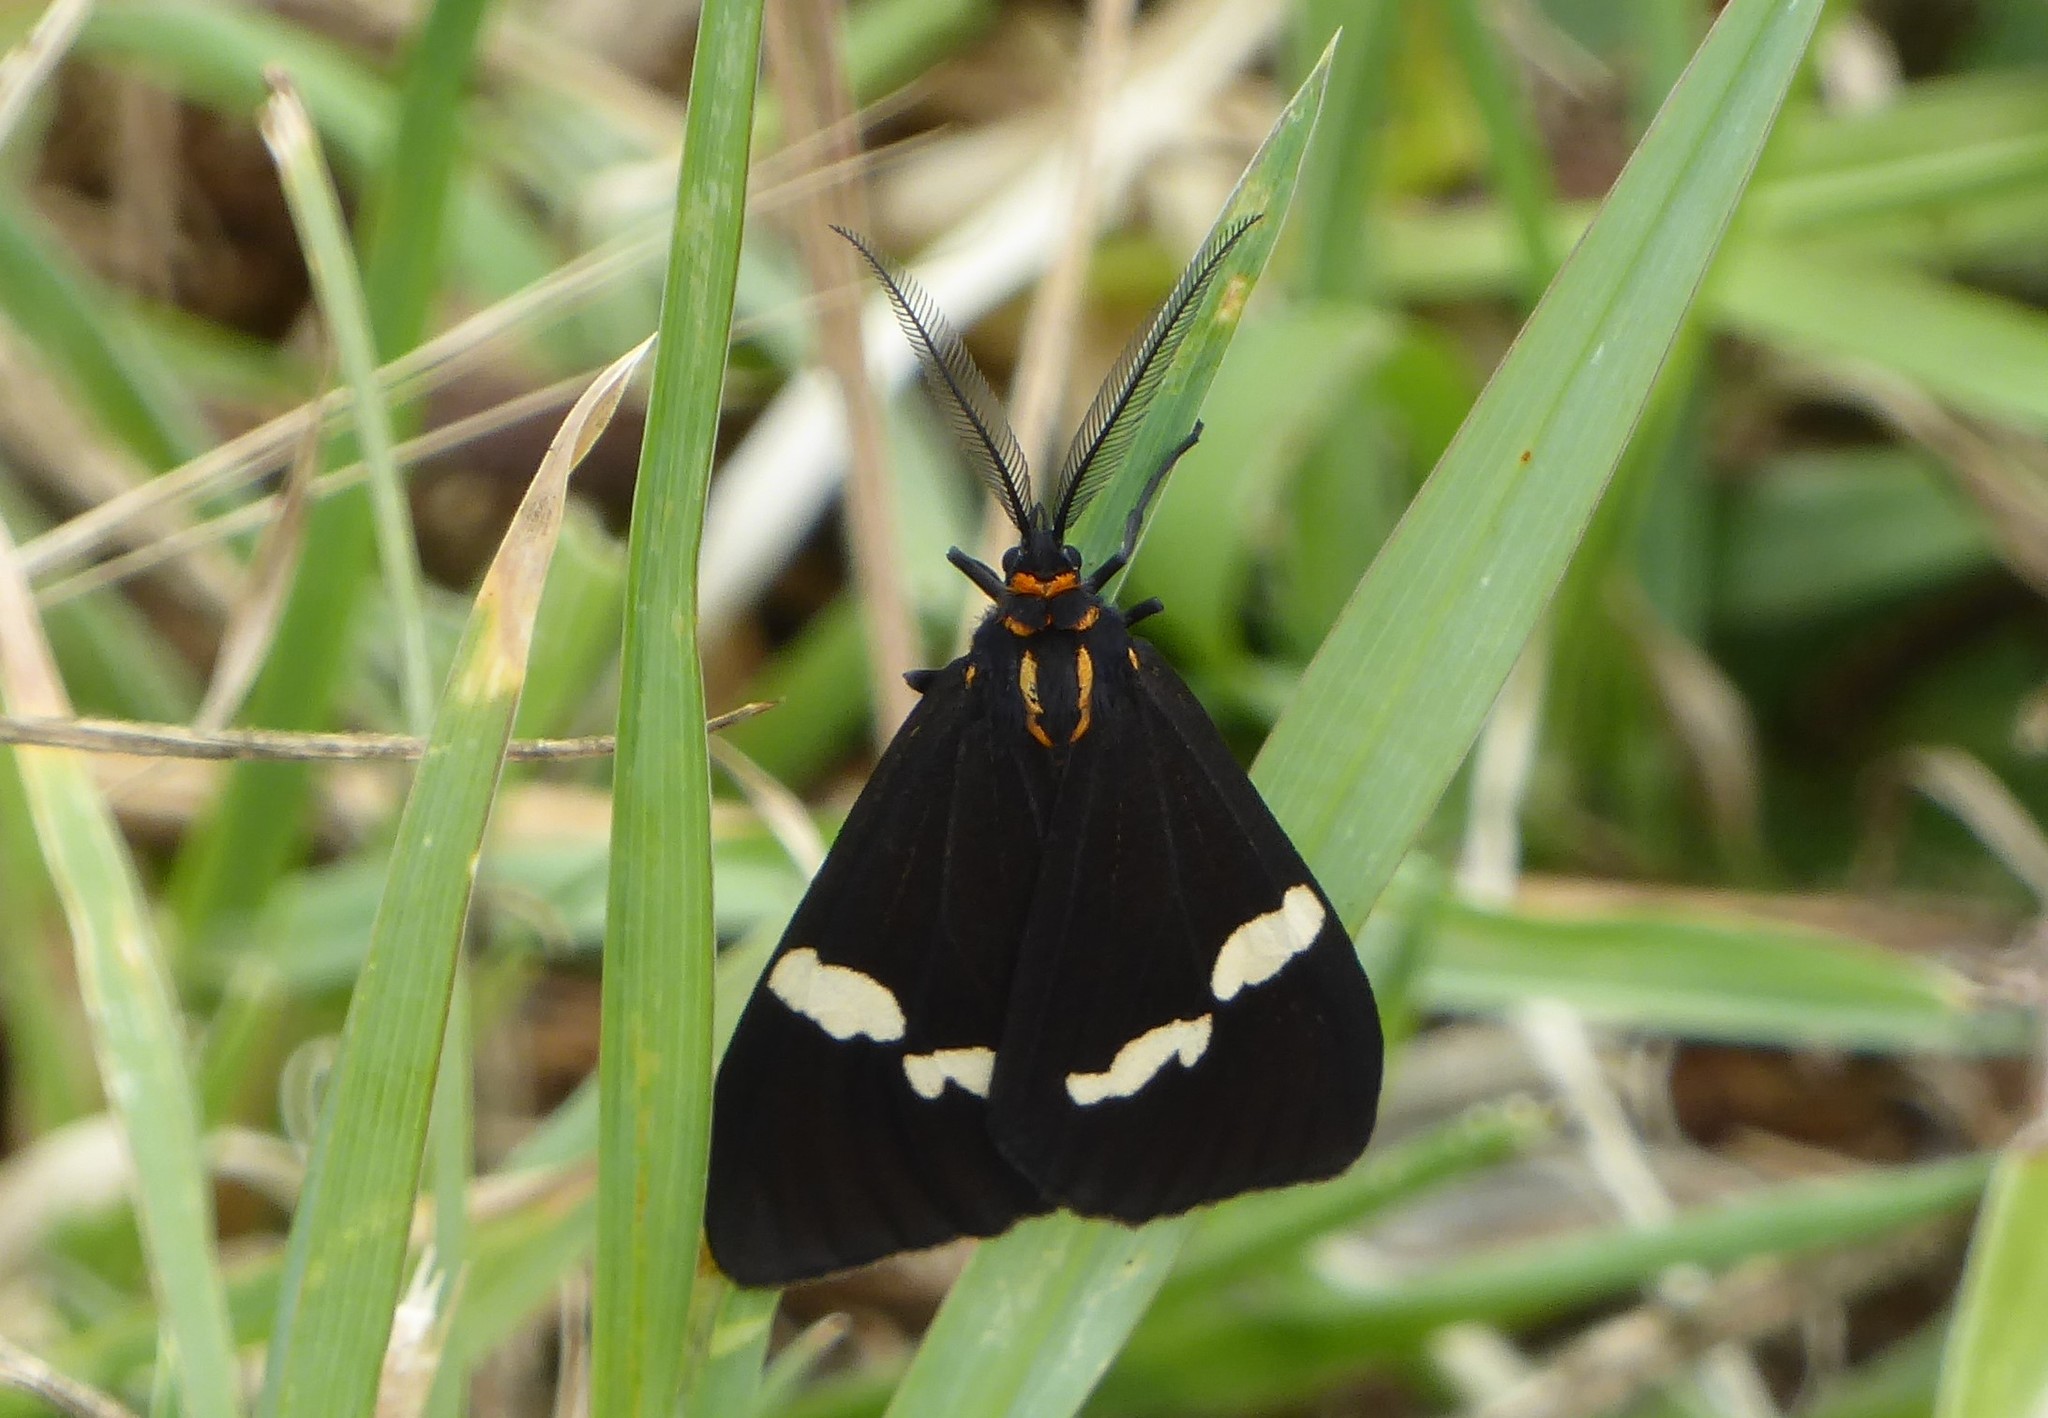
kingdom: Animalia
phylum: Arthropoda
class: Insecta
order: Lepidoptera
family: Erebidae
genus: Nyctemera
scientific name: Nyctemera annulatum
